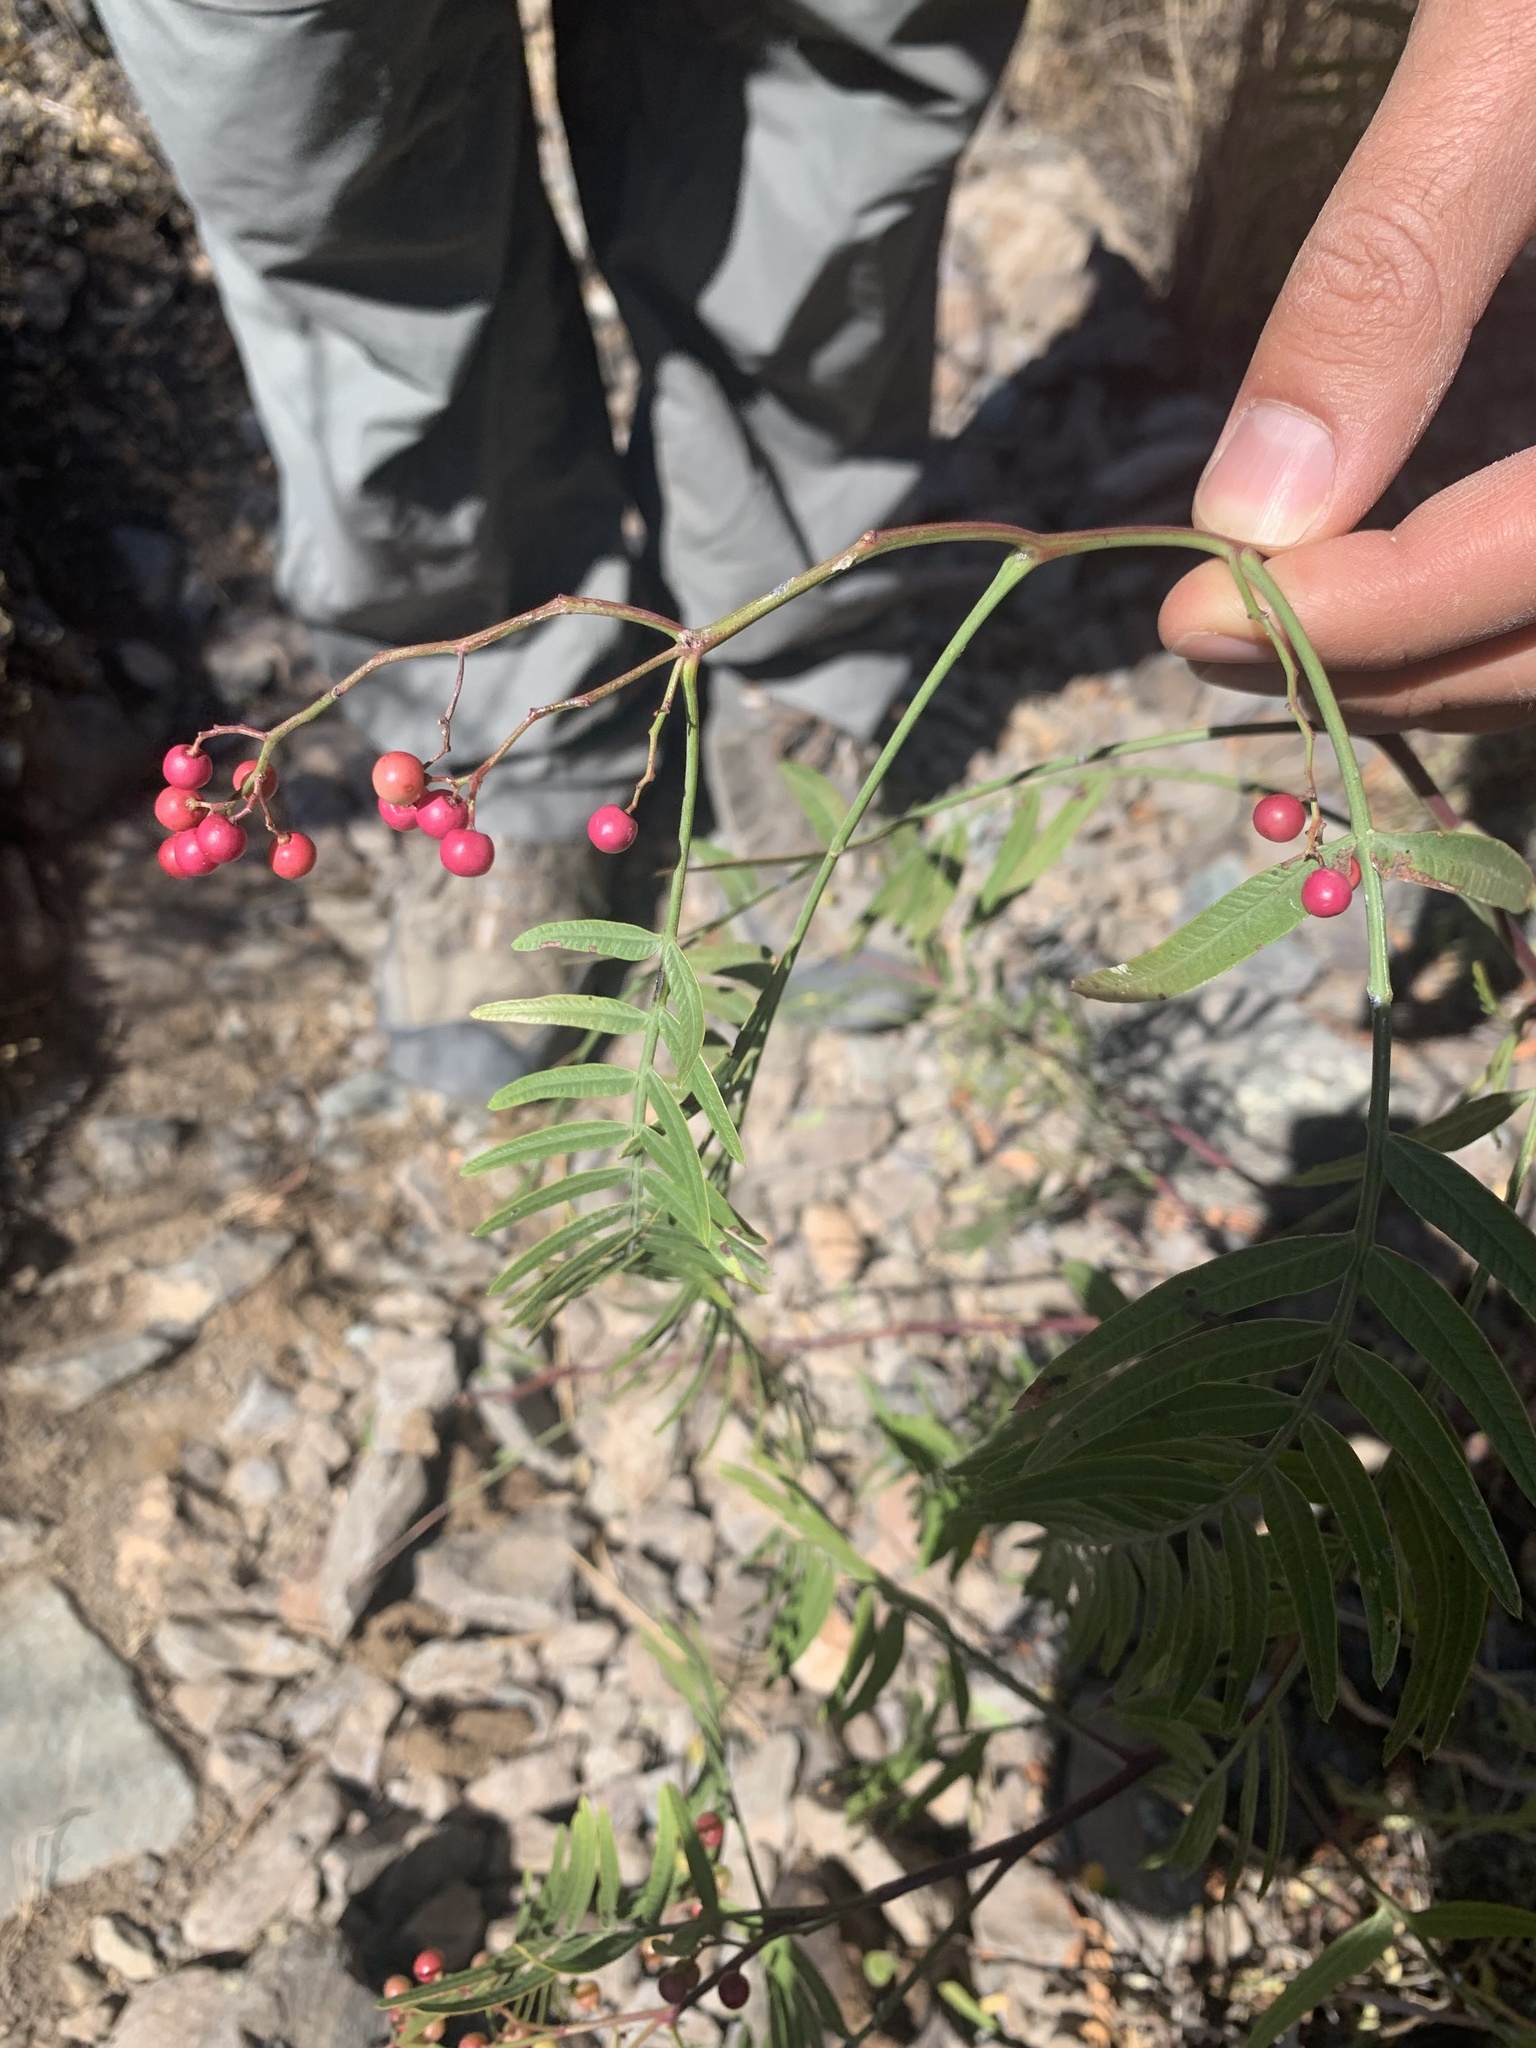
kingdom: Plantae
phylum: Tracheophyta
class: Magnoliopsida
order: Sapindales
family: Anacardiaceae
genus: Schinus
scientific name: Schinus molle
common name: Peruvian peppertree
